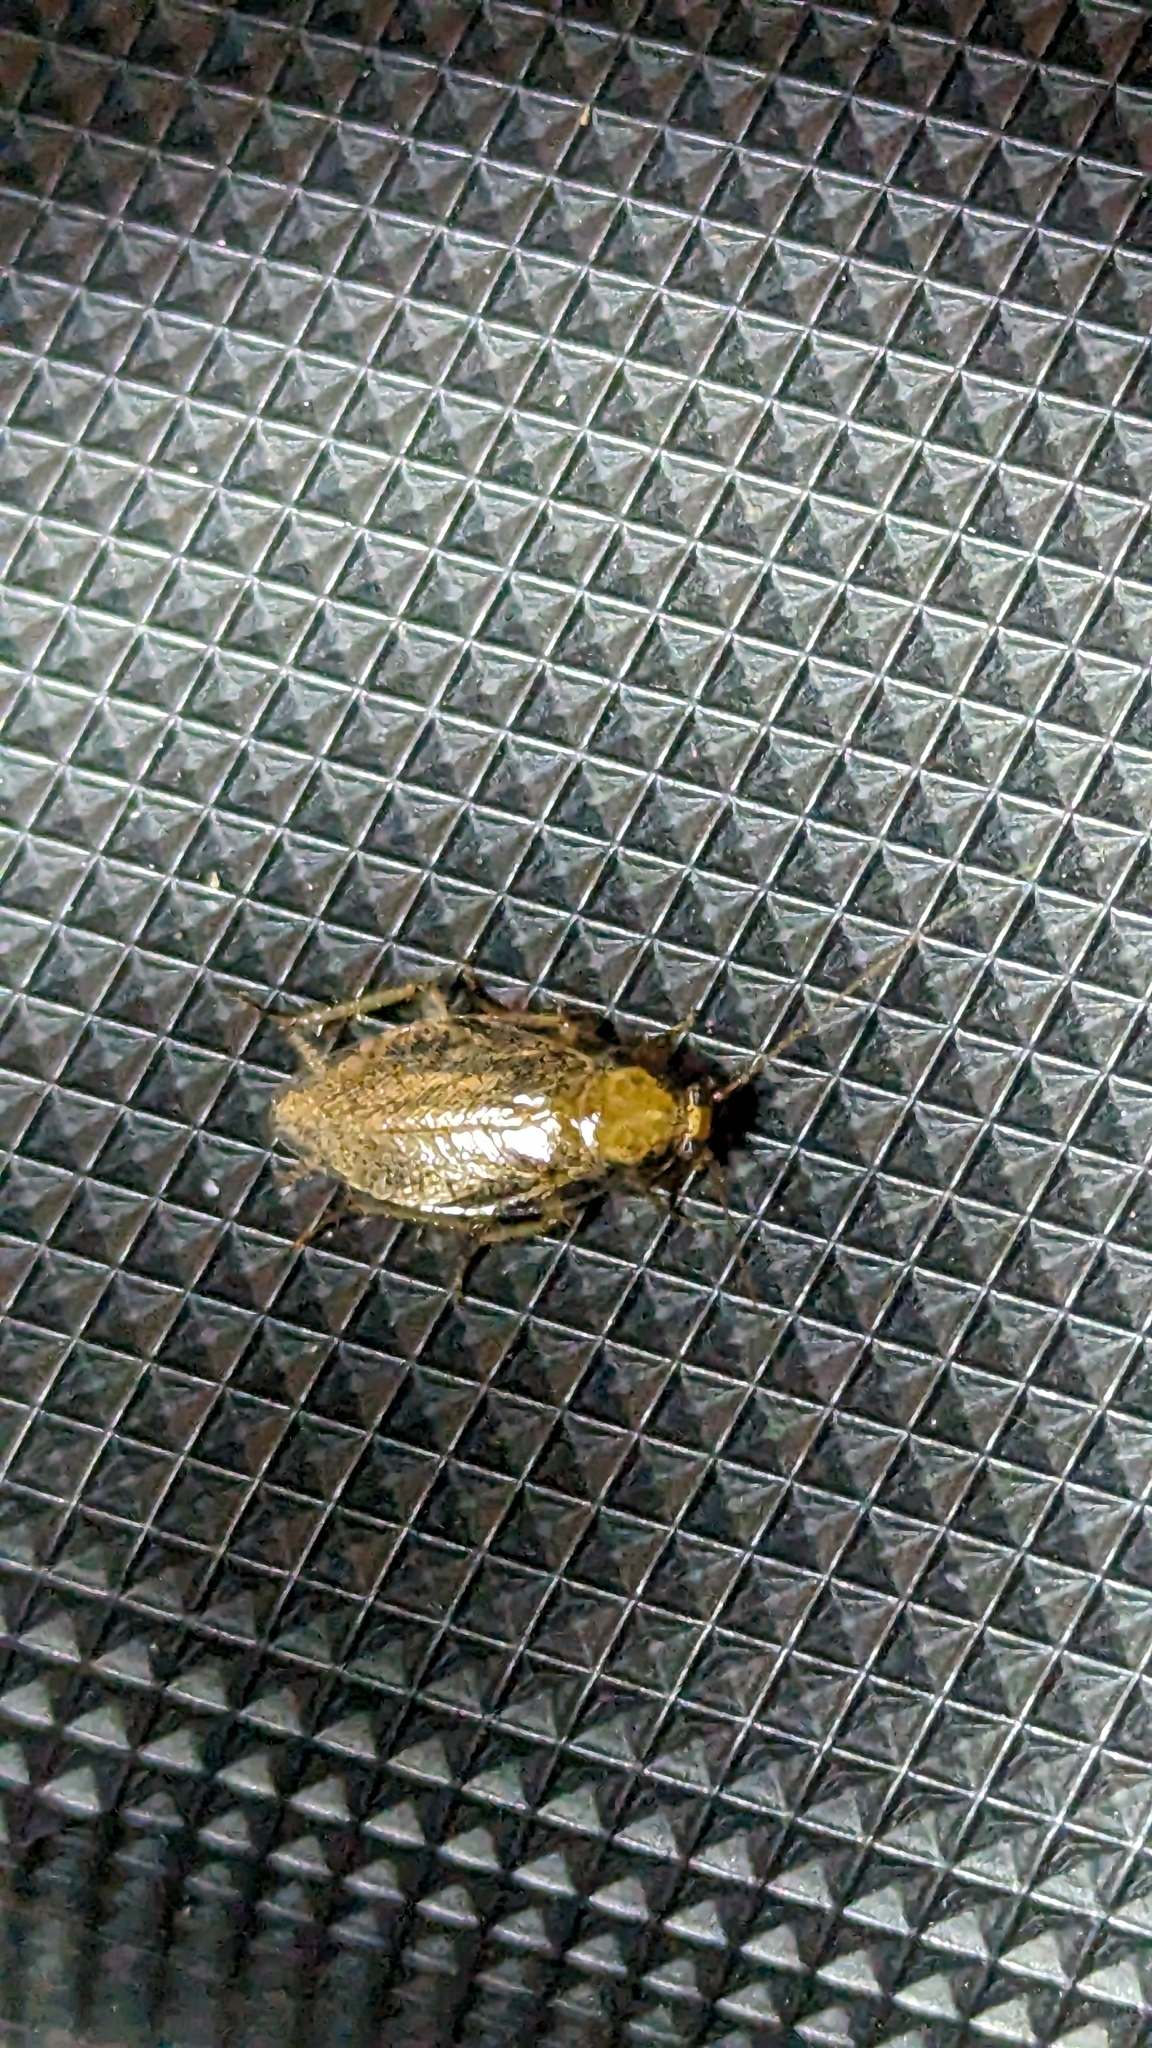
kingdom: Animalia
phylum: Arthropoda
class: Insecta
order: Blattodea
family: Ectobiidae
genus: Ectobius
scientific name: Ectobius pallidus
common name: Tawny cockroach
